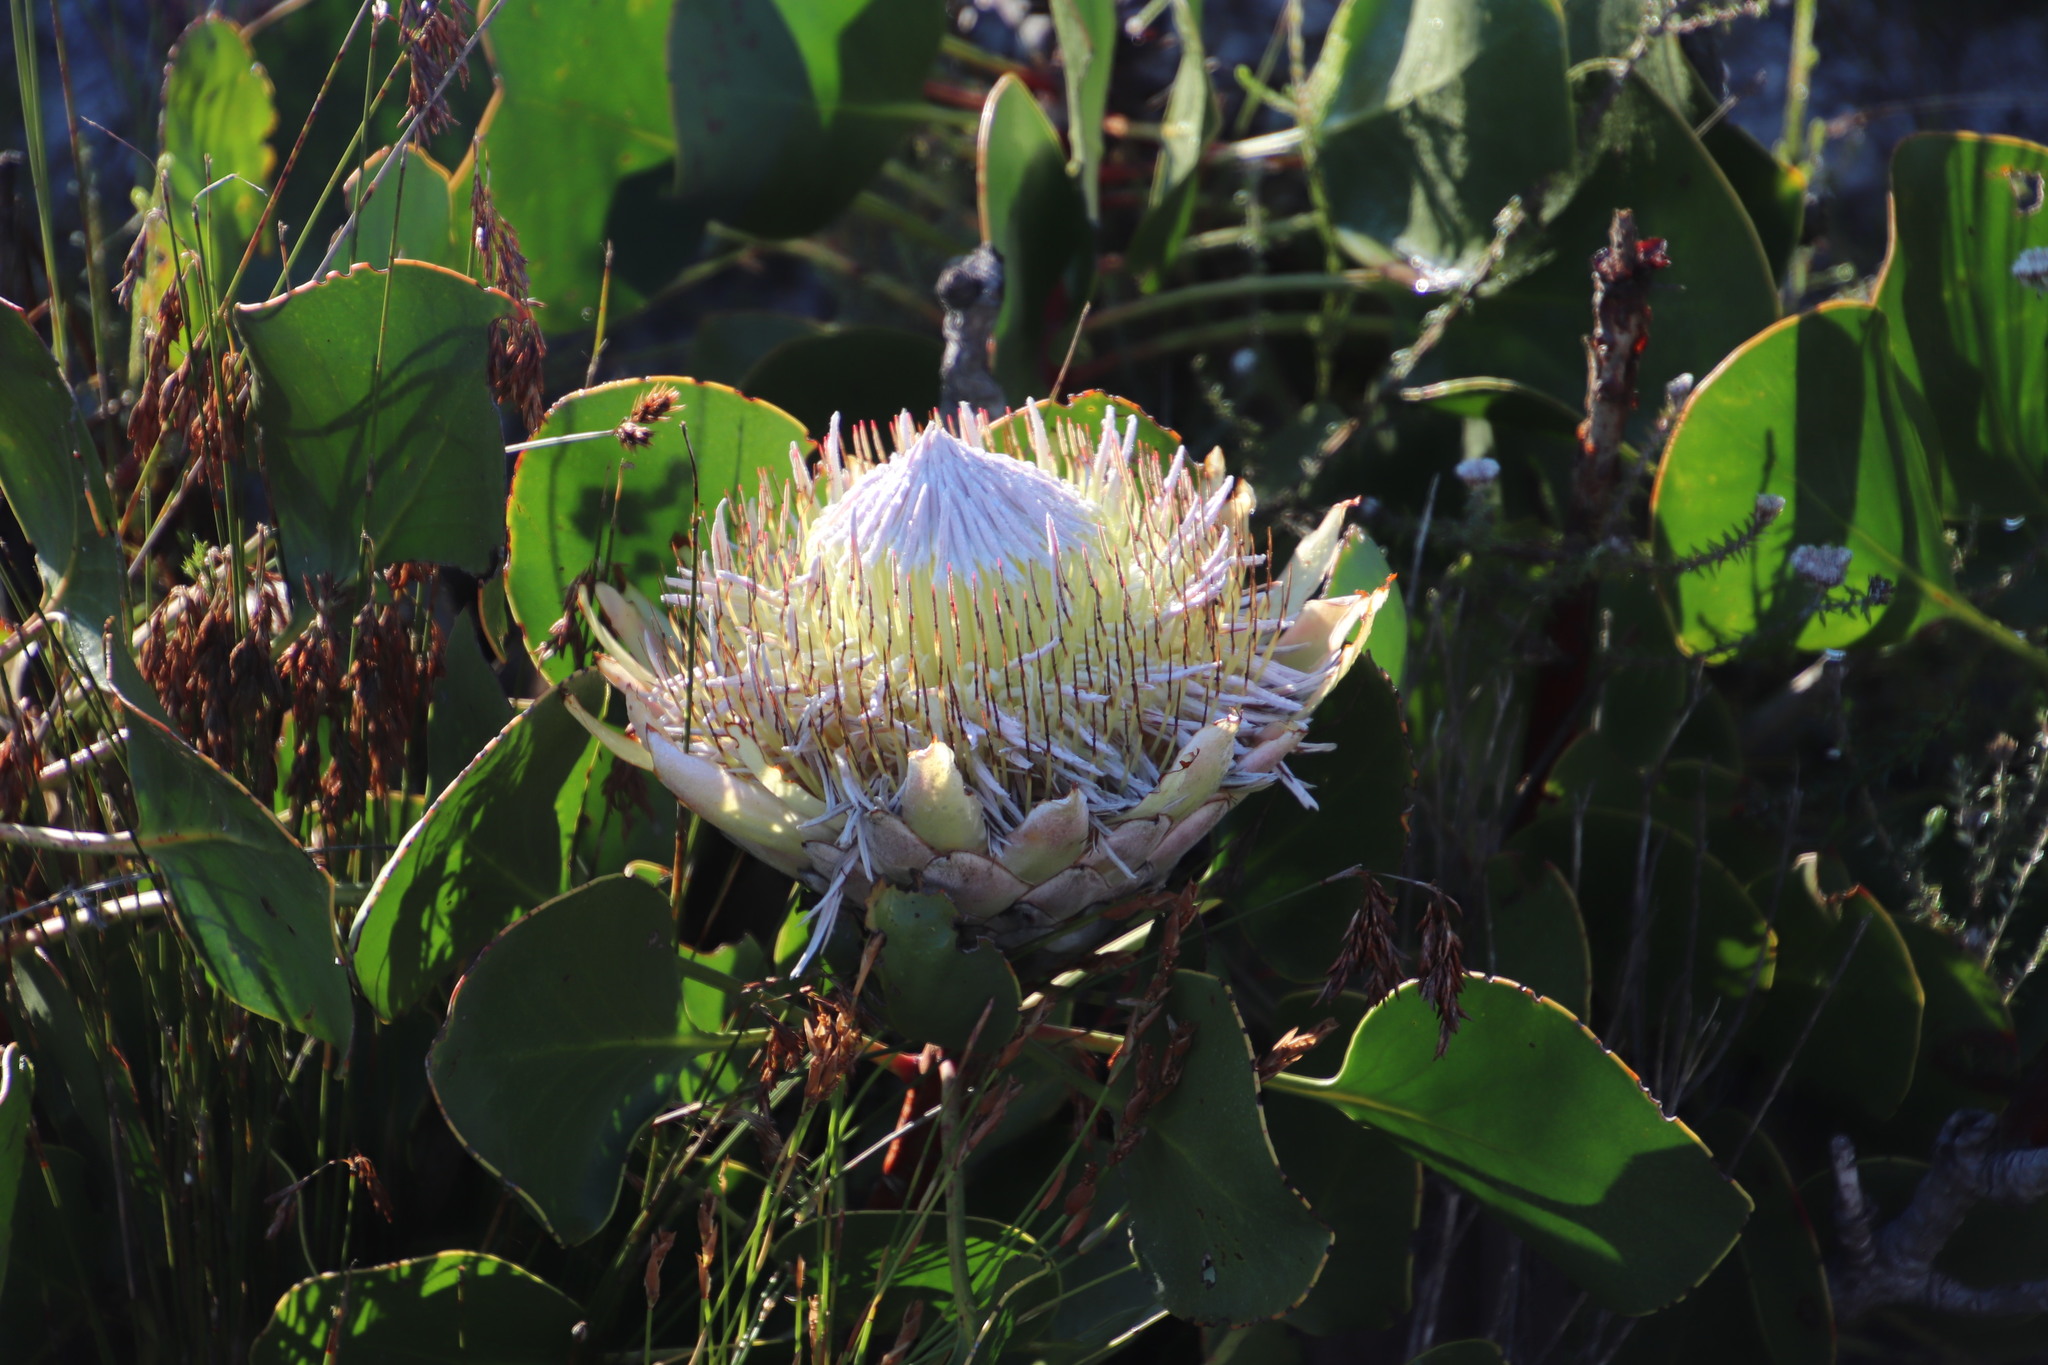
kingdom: Plantae
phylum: Tracheophyta
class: Magnoliopsida
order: Proteales
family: Proteaceae
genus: Protea
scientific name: Protea cynaroides
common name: King protea
